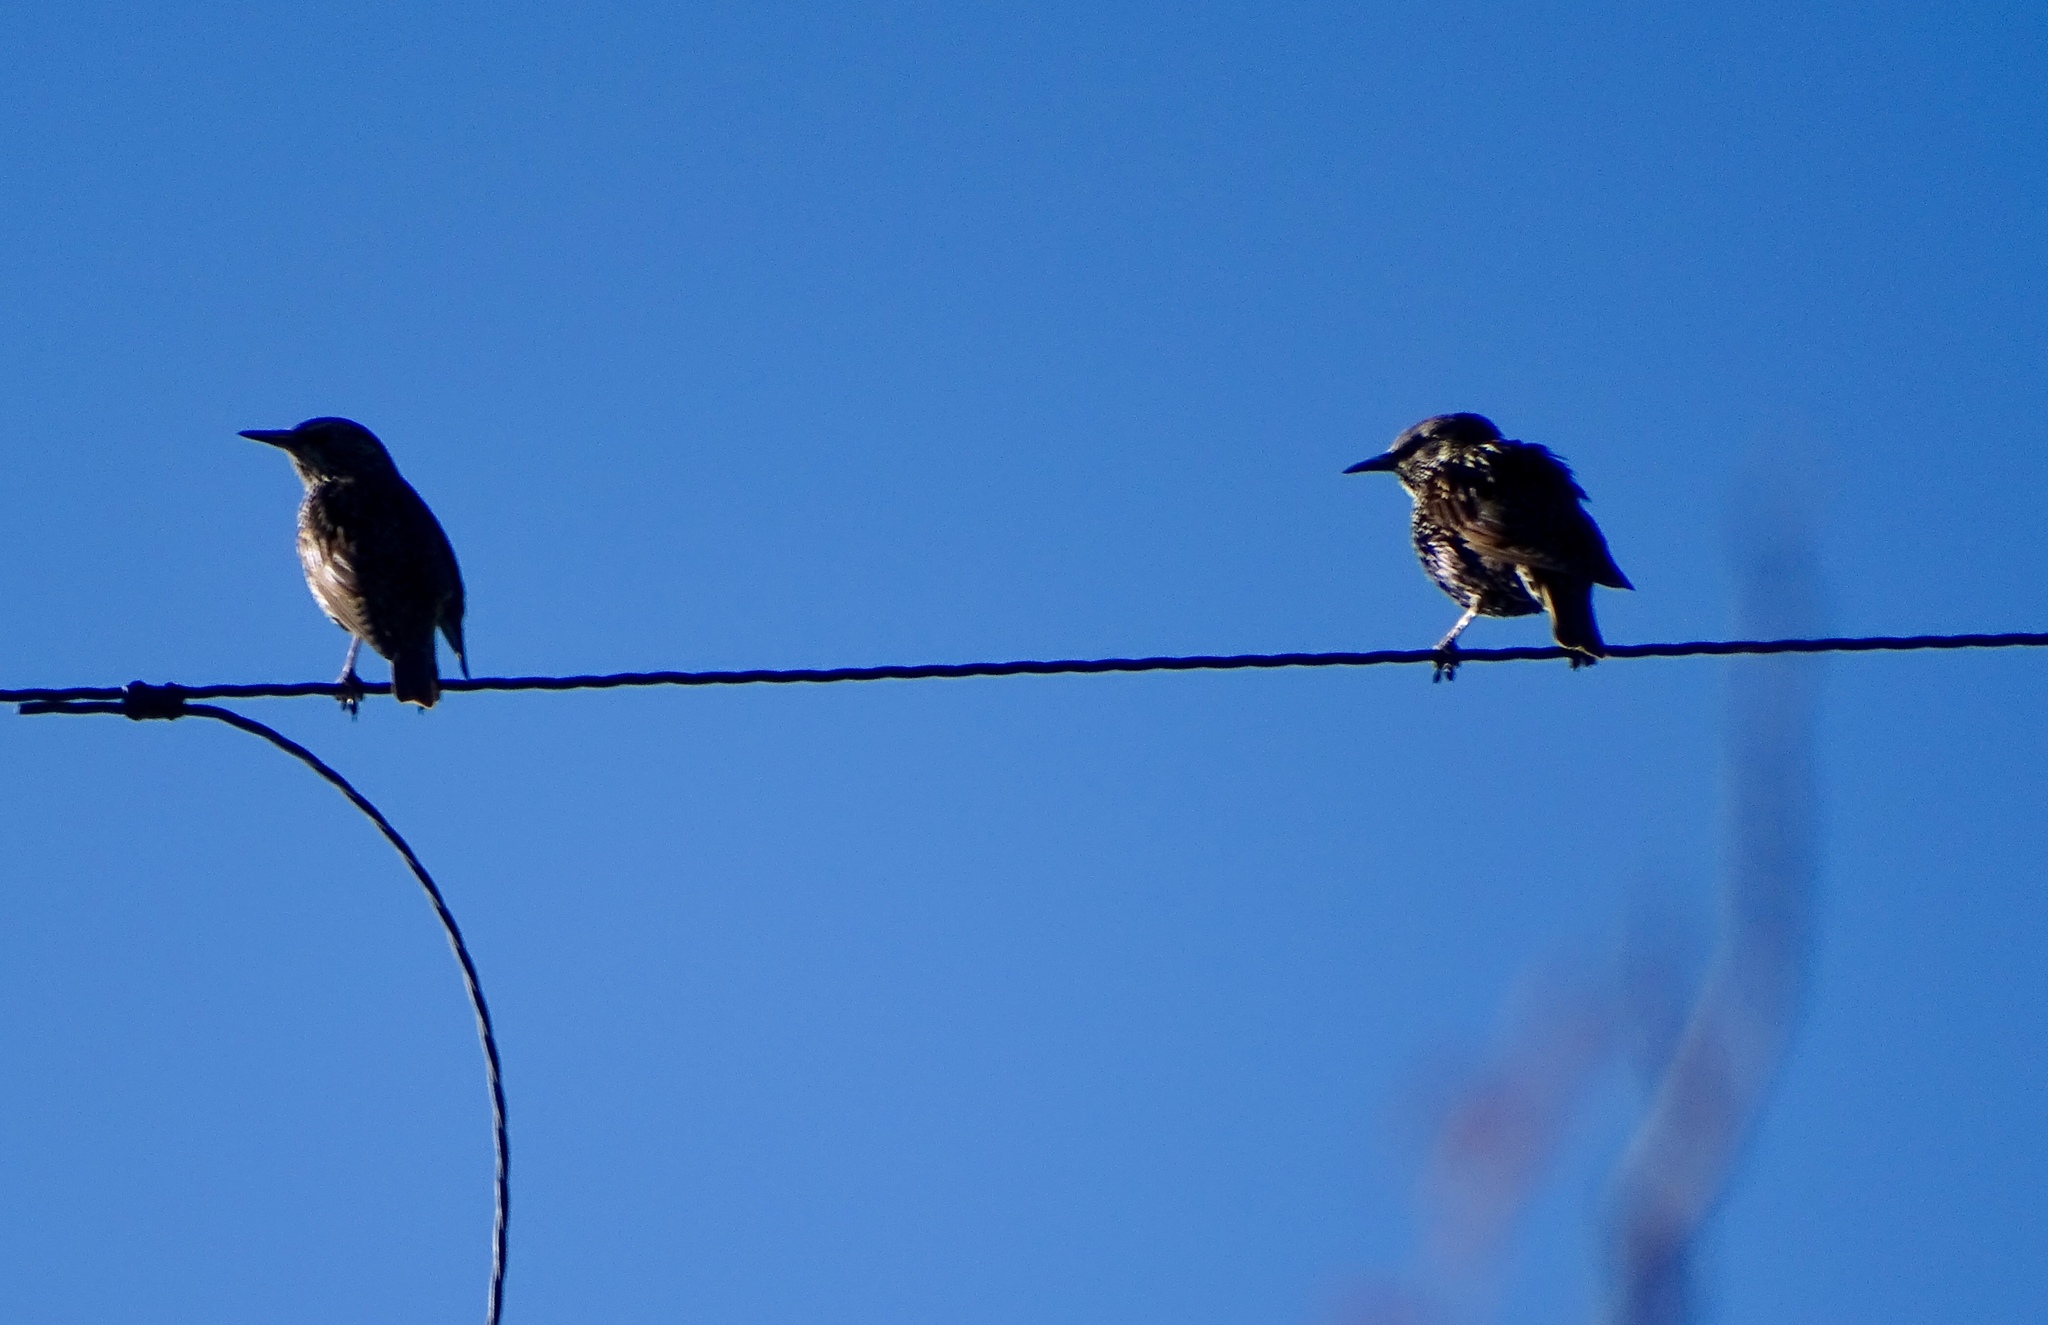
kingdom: Animalia
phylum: Chordata
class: Aves
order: Passeriformes
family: Sturnidae
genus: Sturnus
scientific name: Sturnus vulgaris
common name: Common starling
